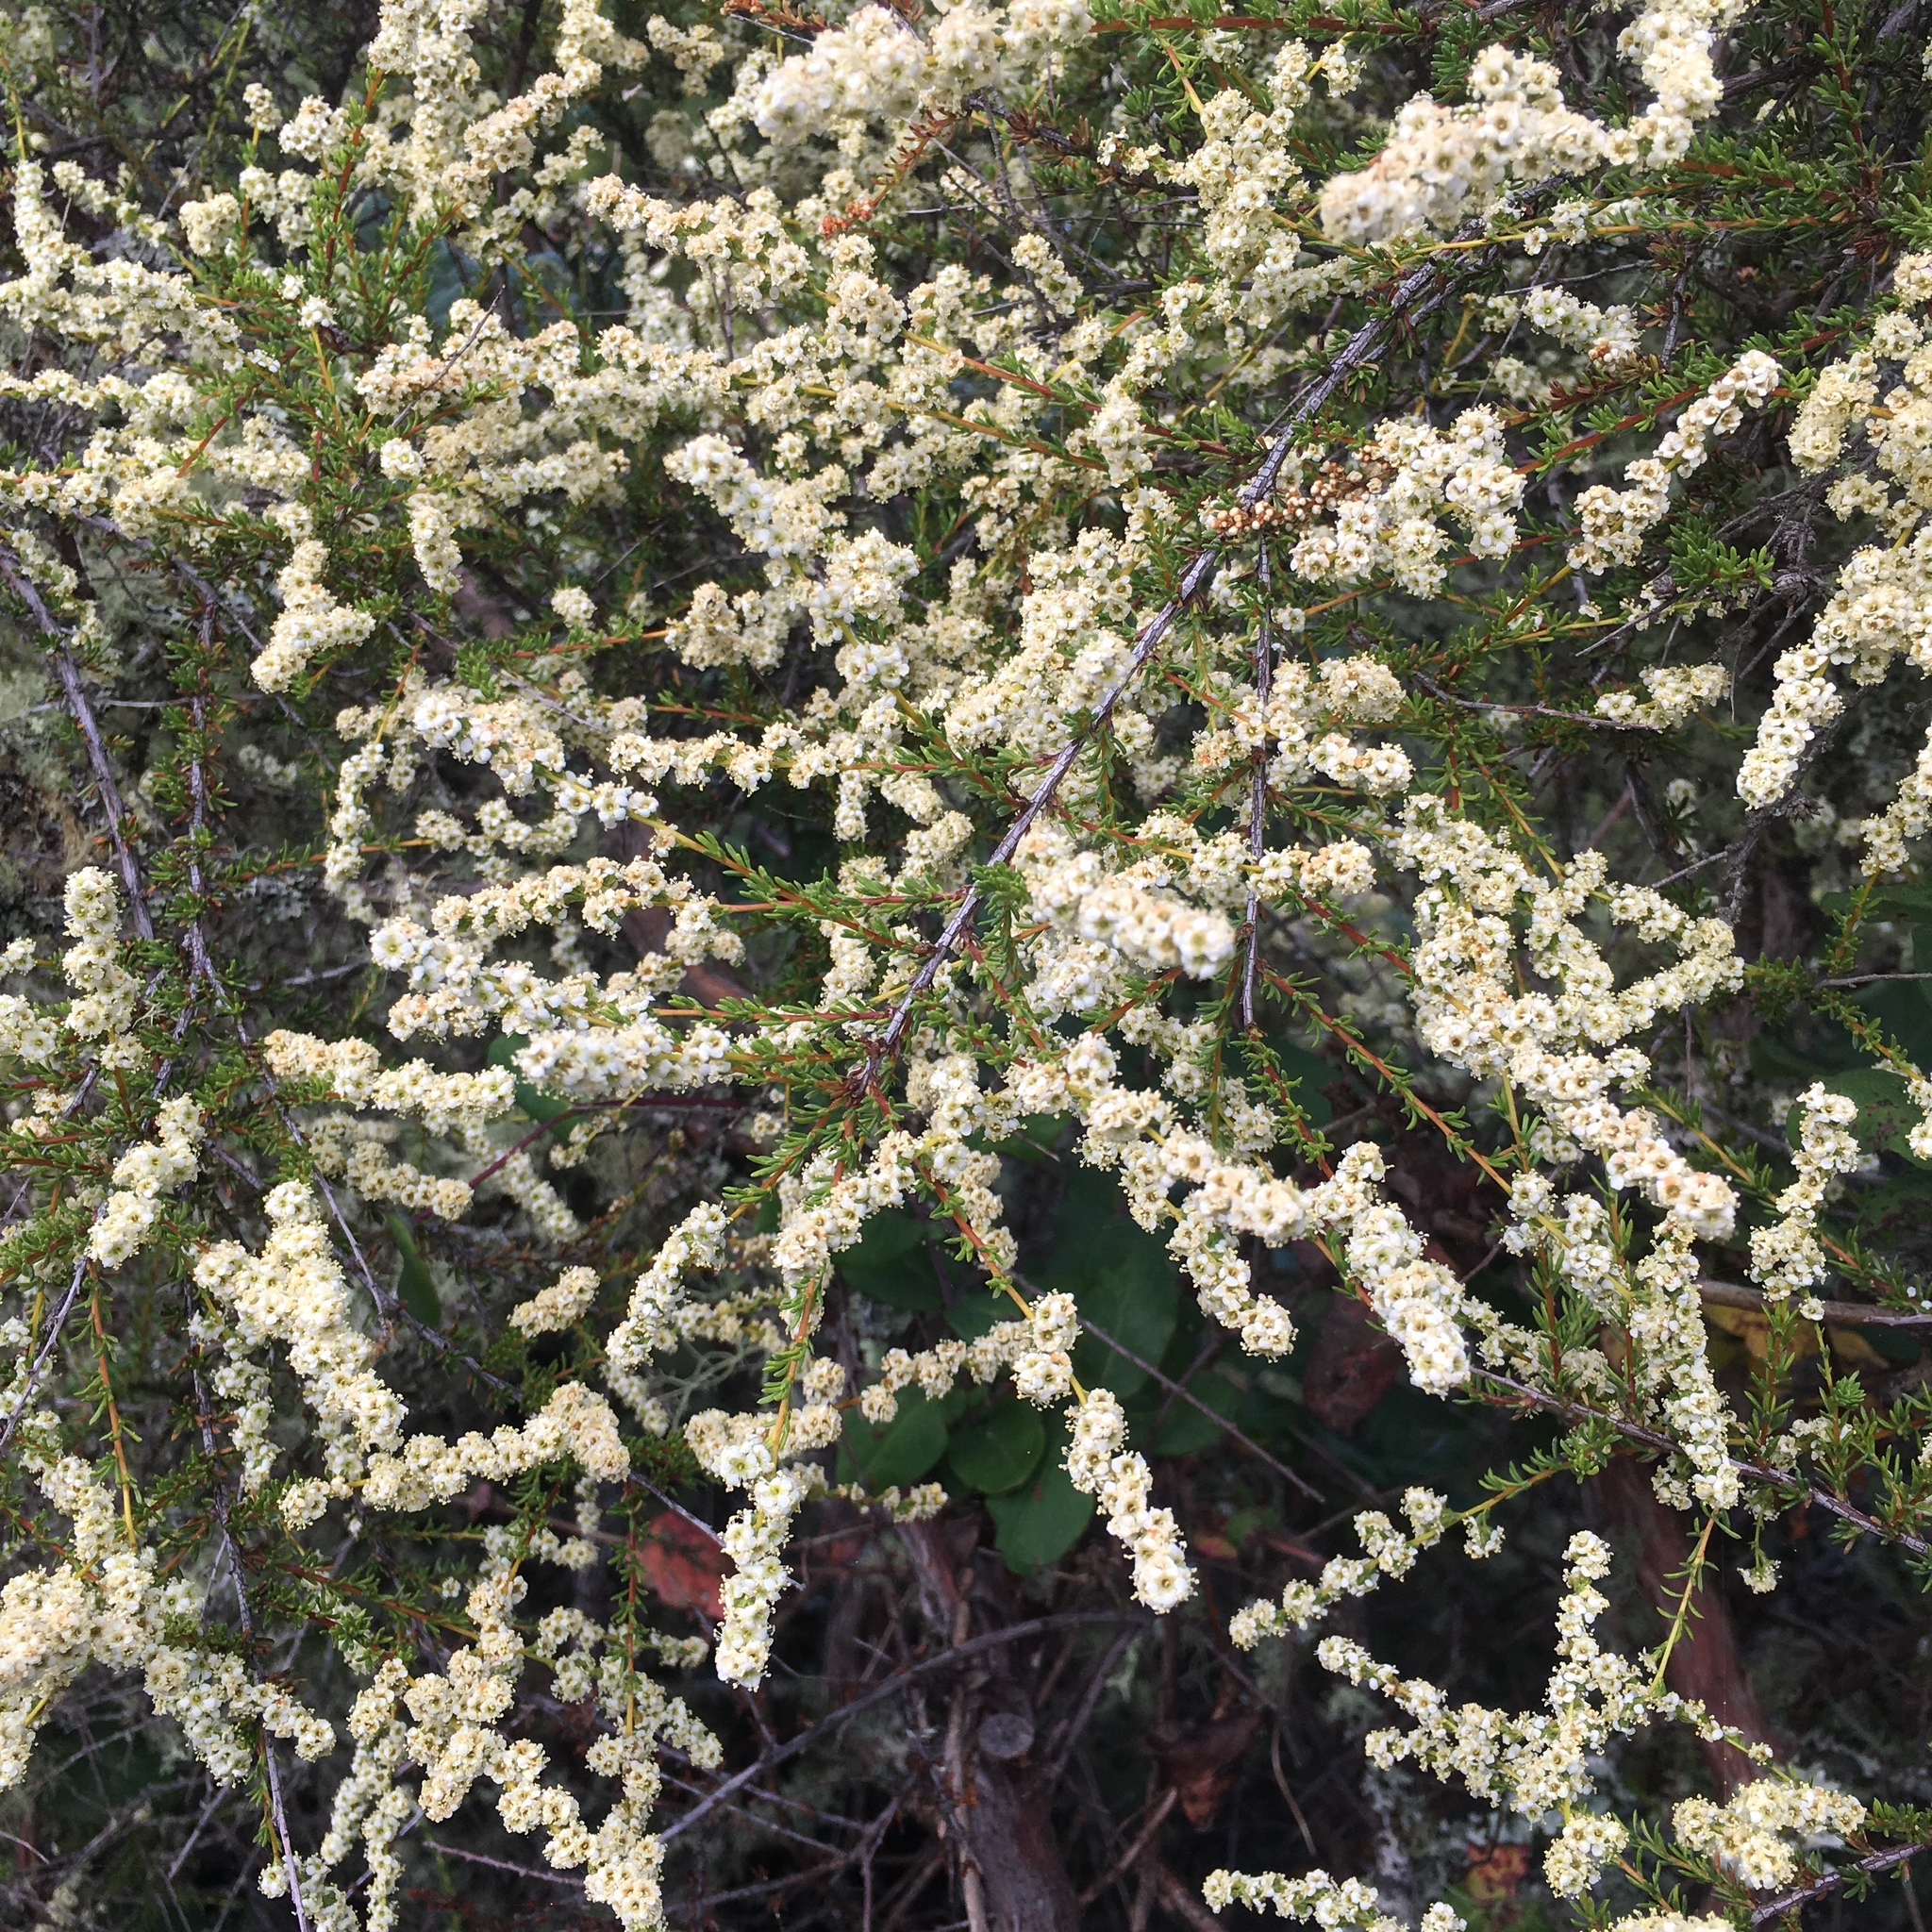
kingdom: Plantae
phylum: Tracheophyta
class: Magnoliopsida
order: Rosales
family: Rosaceae
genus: Adenostoma
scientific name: Adenostoma fasciculatum
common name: Chamise
